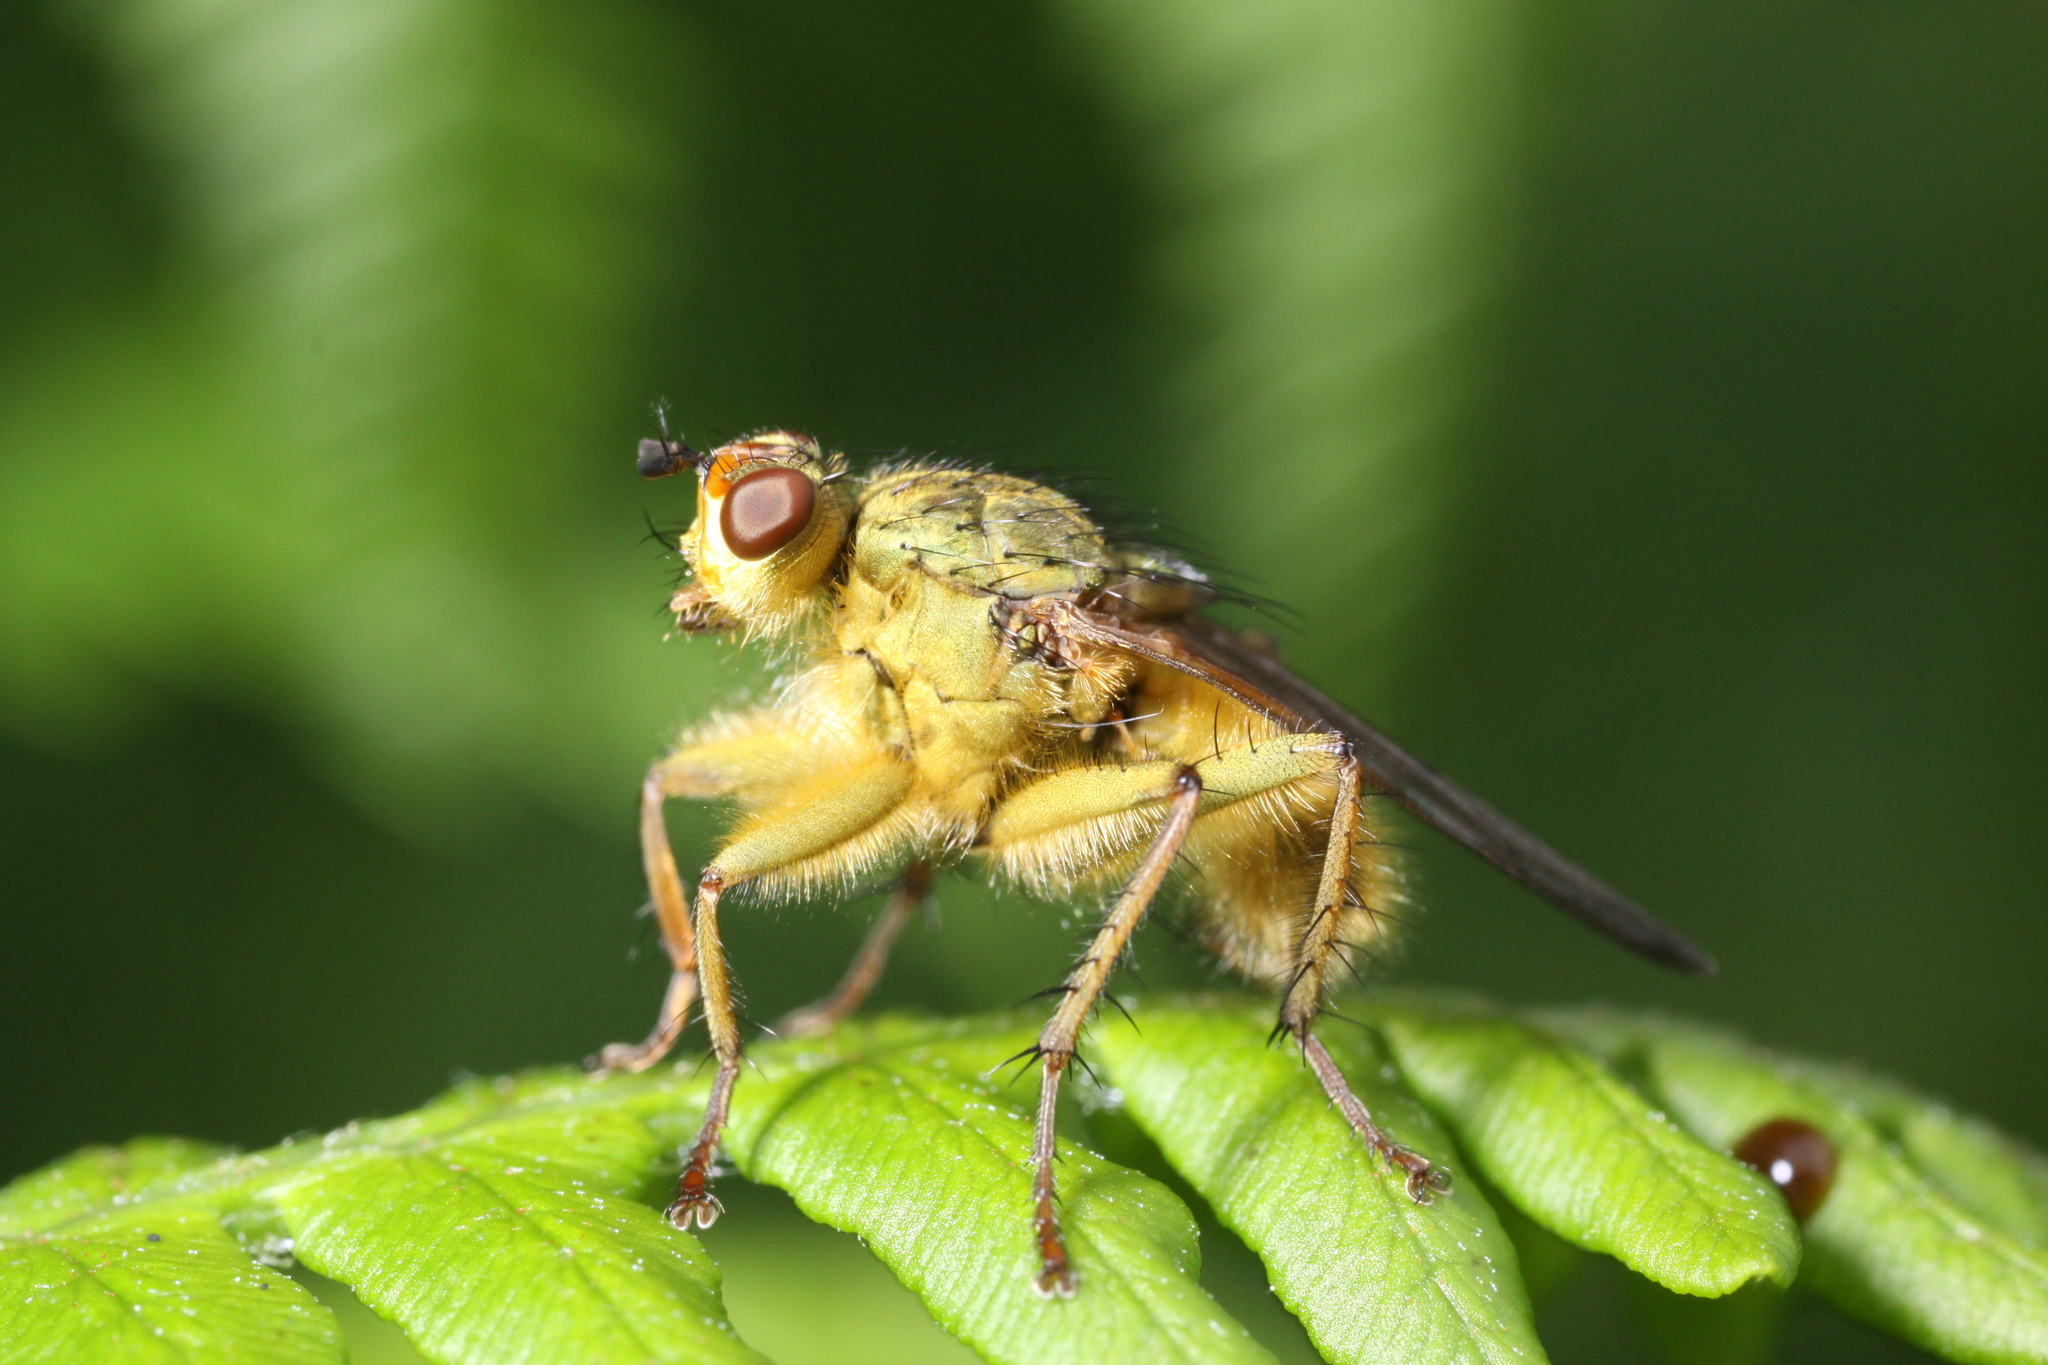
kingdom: Animalia
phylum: Arthropoda
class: Insecta
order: Diptera
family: Scathophagidae
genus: Scathophaga
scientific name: Scathophaga stercoraria
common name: Yellow dung fly
